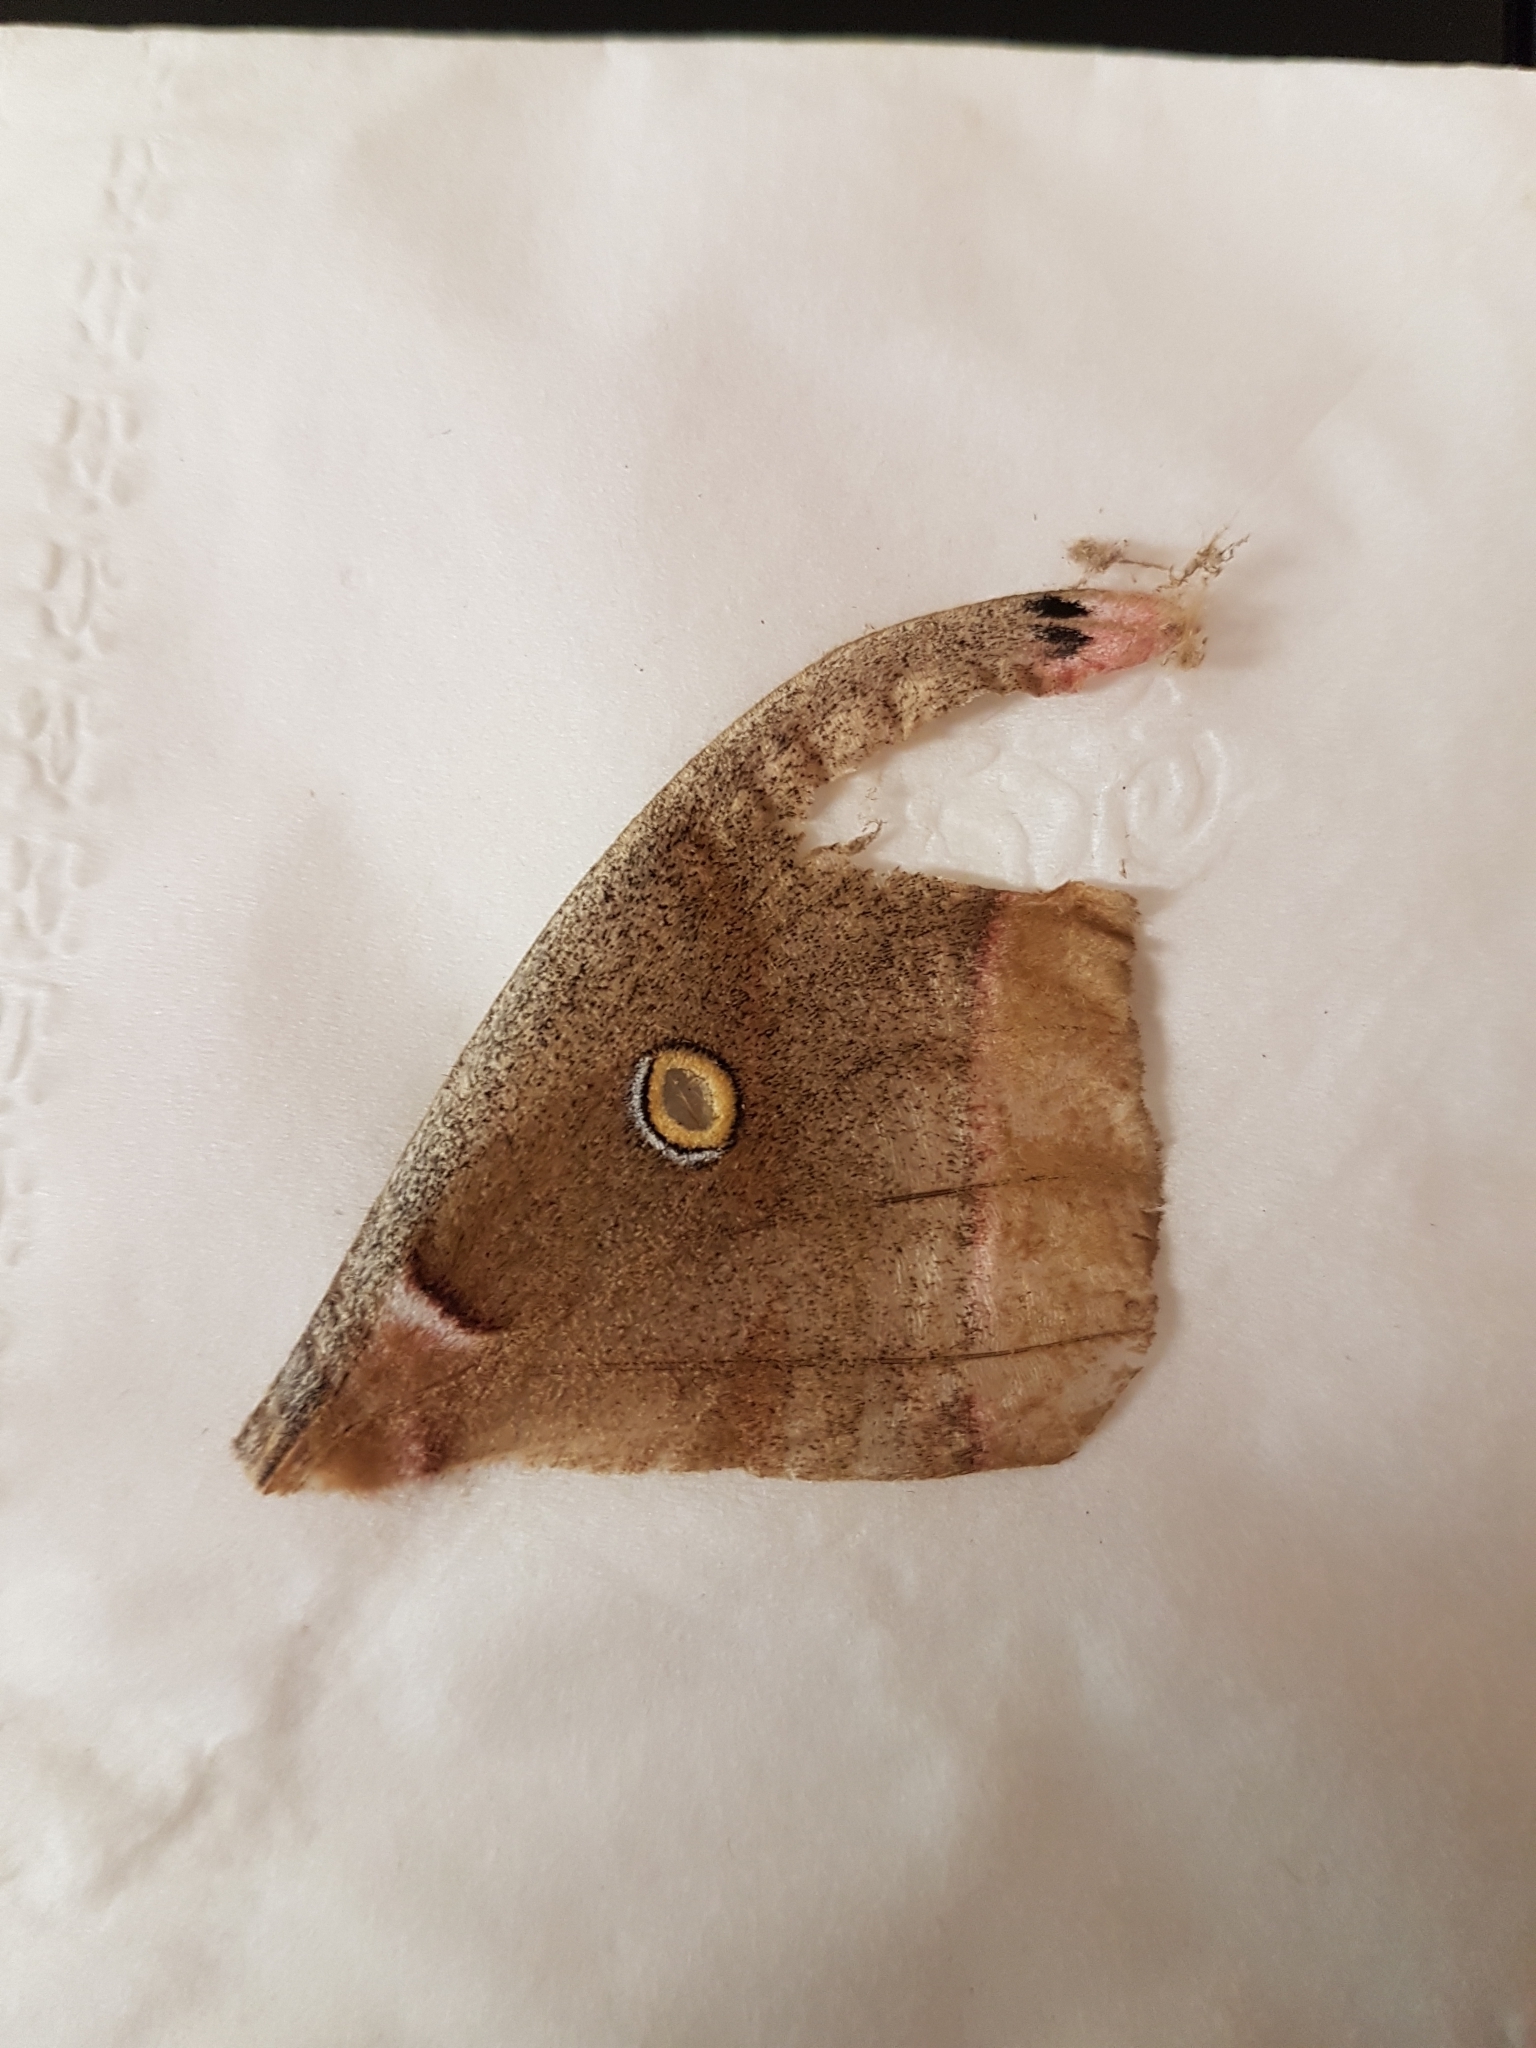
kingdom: Animalia
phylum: Arthropoda
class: Insecta
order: Lepidoptera
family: Saturniidae
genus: Antheraea
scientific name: Antheraea polyphemus
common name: Polyphemus moth
